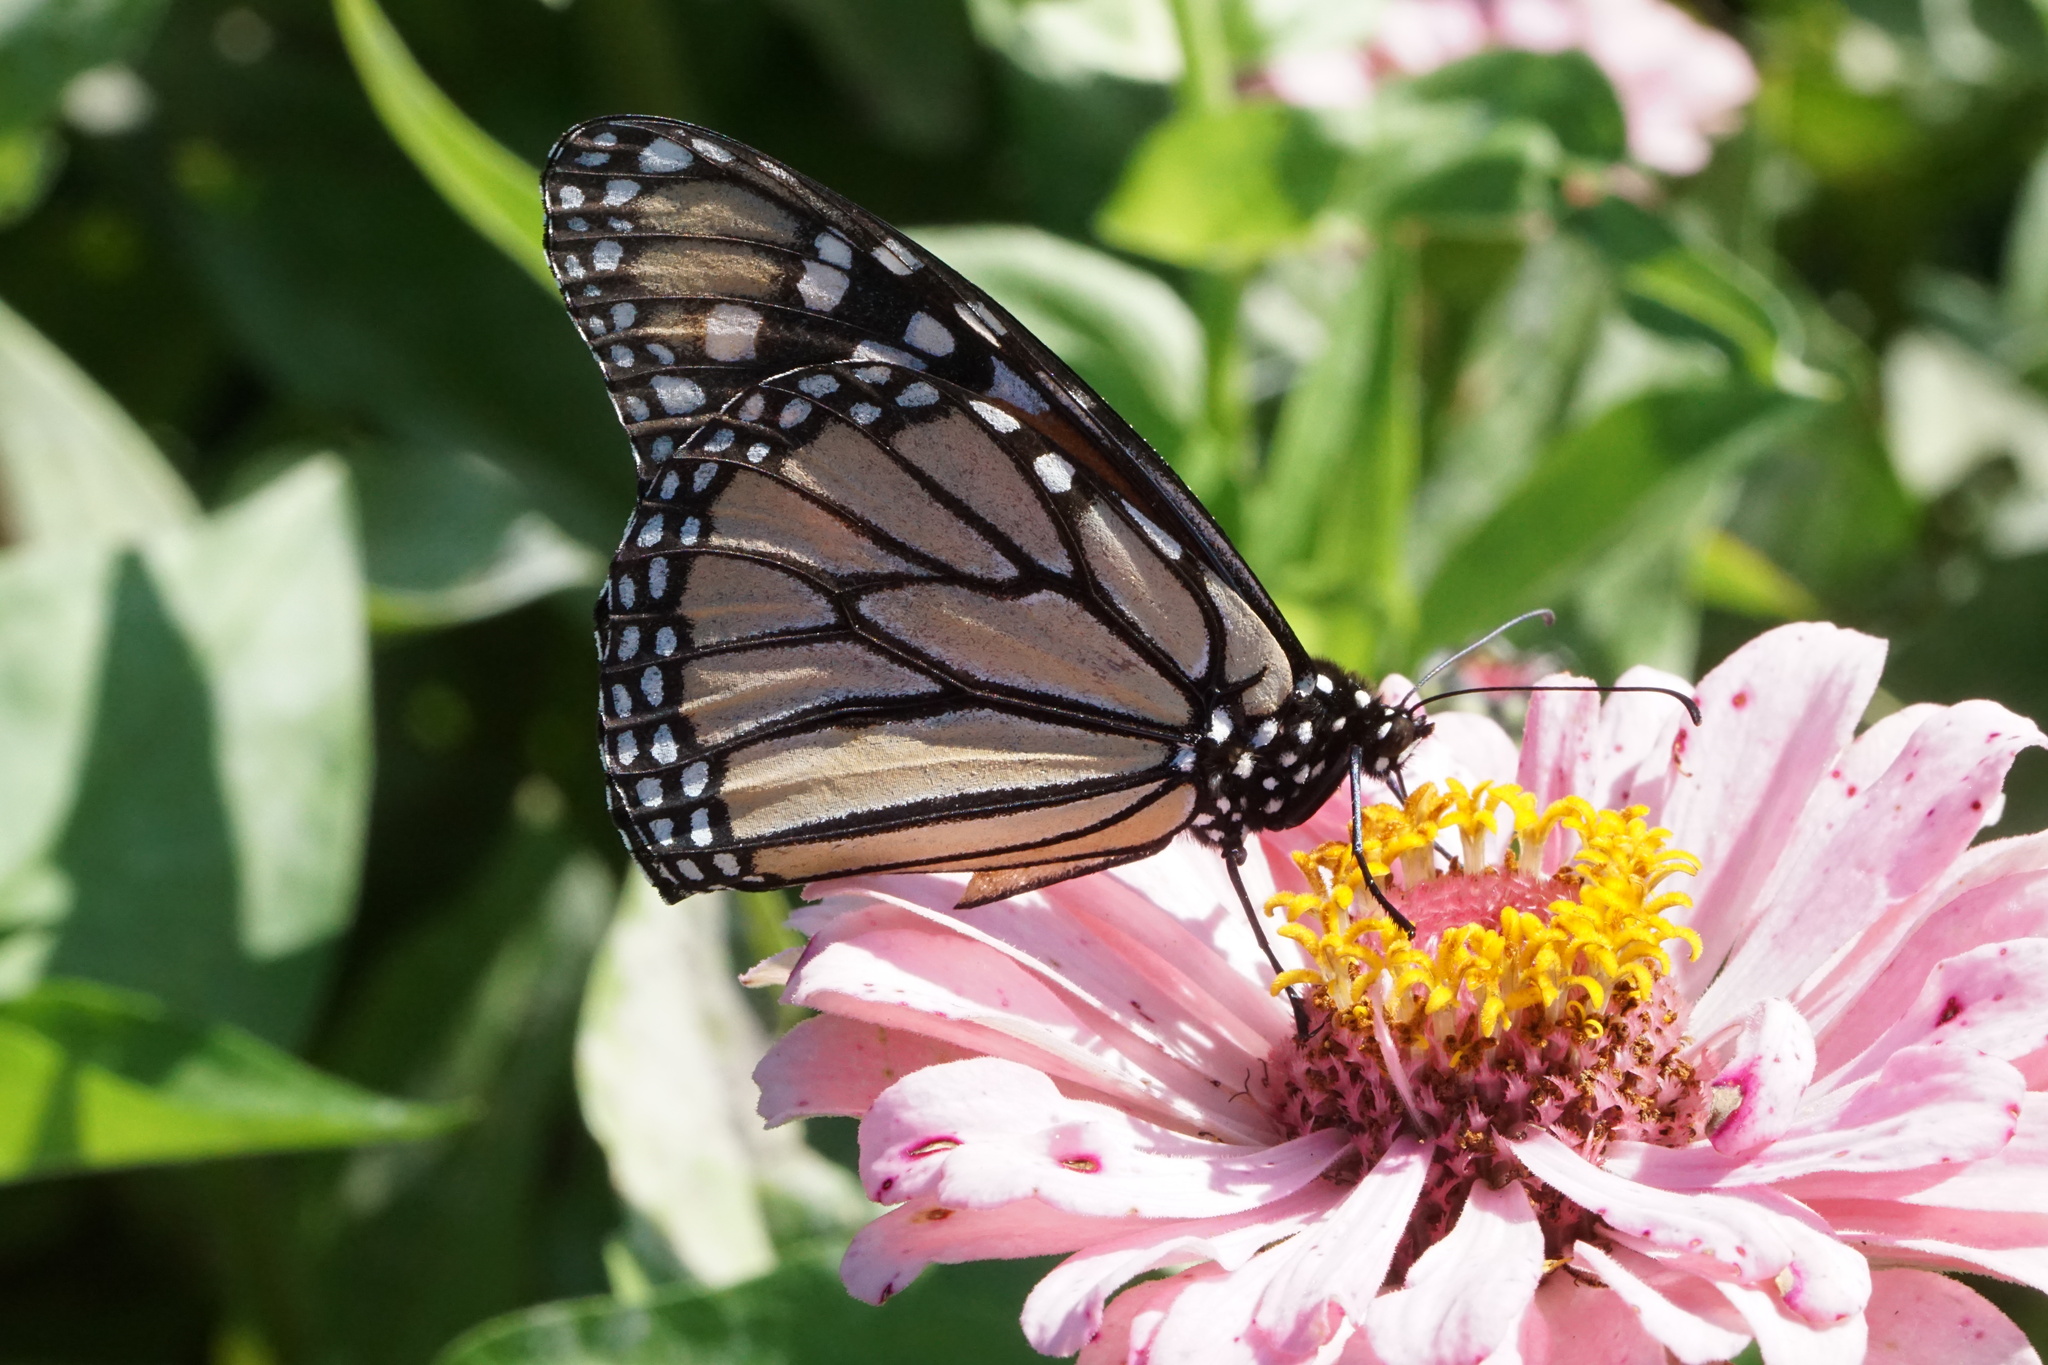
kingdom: Animalia
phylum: Arthropoda
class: Insecta
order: Lepidoptera
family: Nymphalidae
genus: Danaus
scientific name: Danaus plexippus
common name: Monarch
